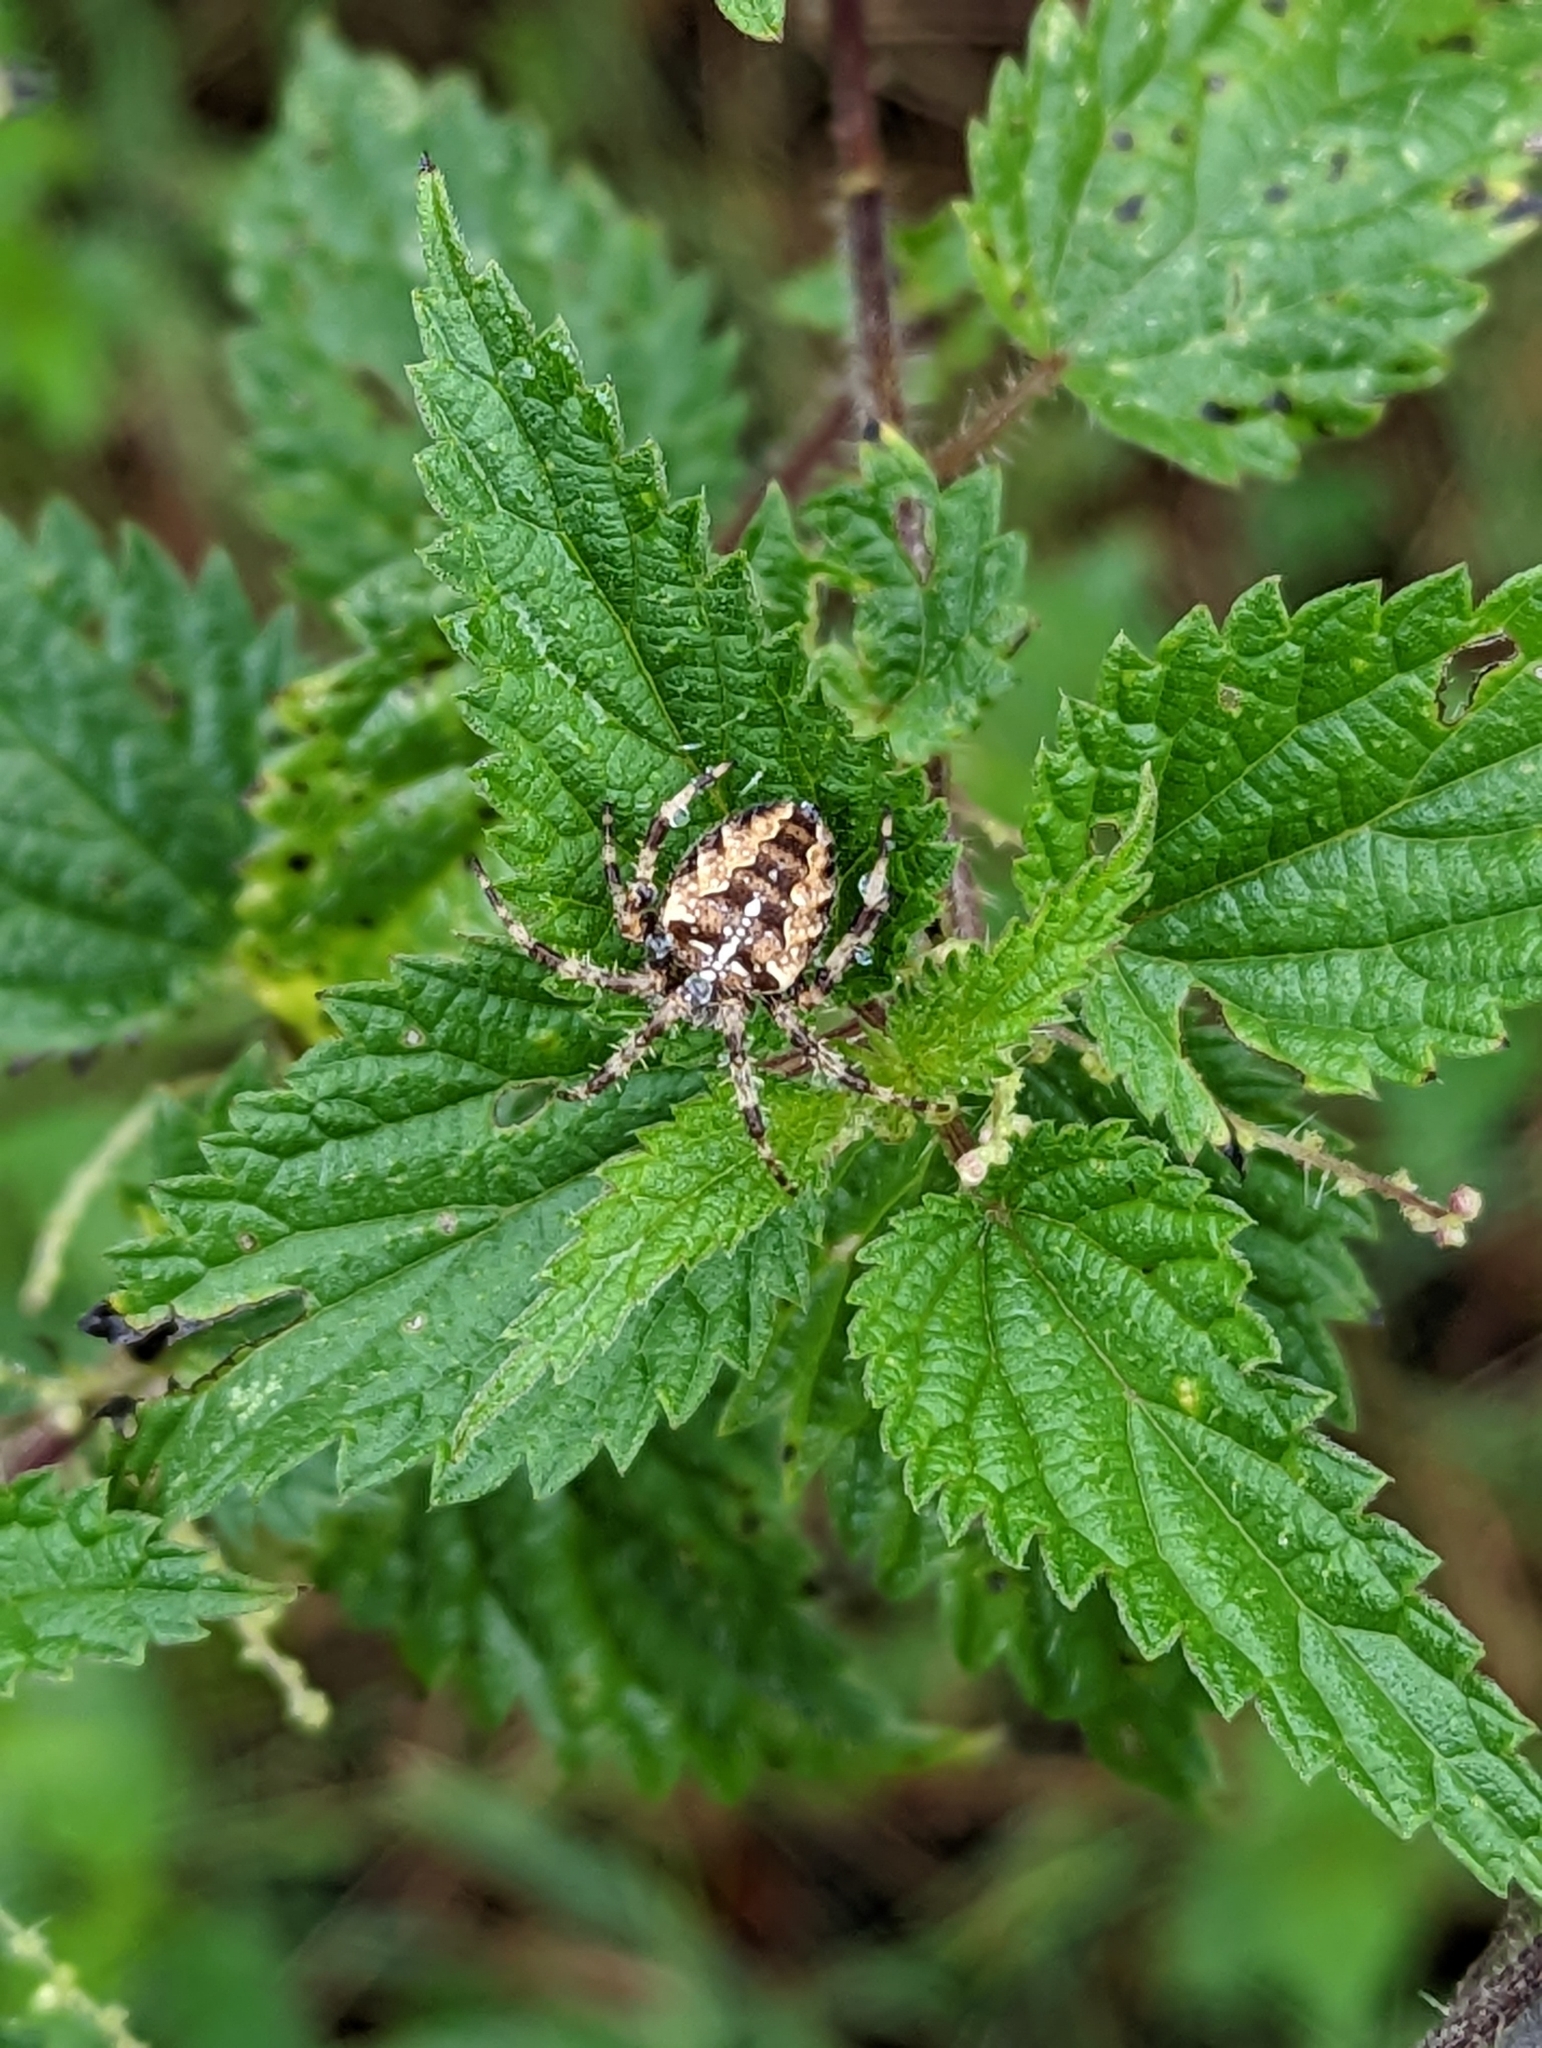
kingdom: Animalia
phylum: Arthropoda
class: Arachnida
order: Araneae
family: Araneidae
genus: Araneus
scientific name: Araneus diadematus
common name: Cross orbweaver
